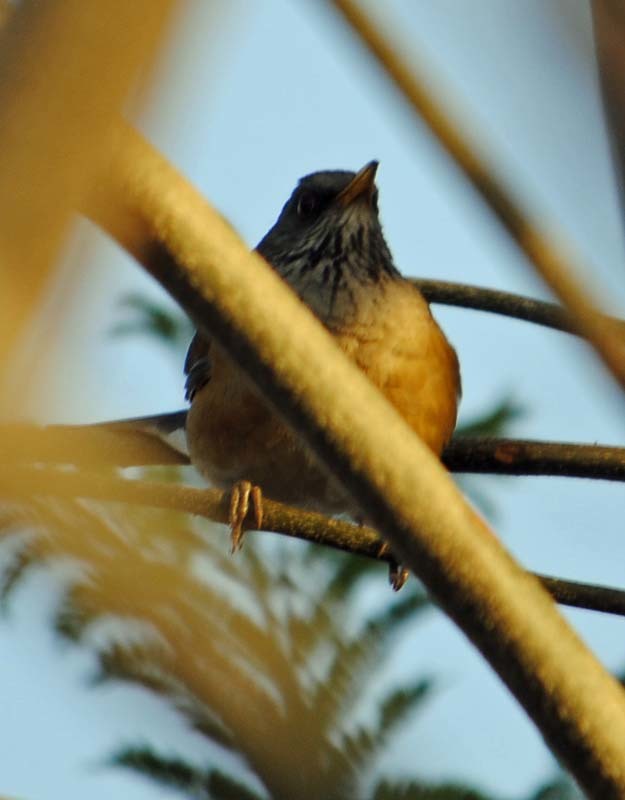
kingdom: Animalia
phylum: Chordata
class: Aves
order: Passeriformes
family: Turdidae
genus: Turdus
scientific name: Turdus rufopalliatus
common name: Rufous-backed robin
